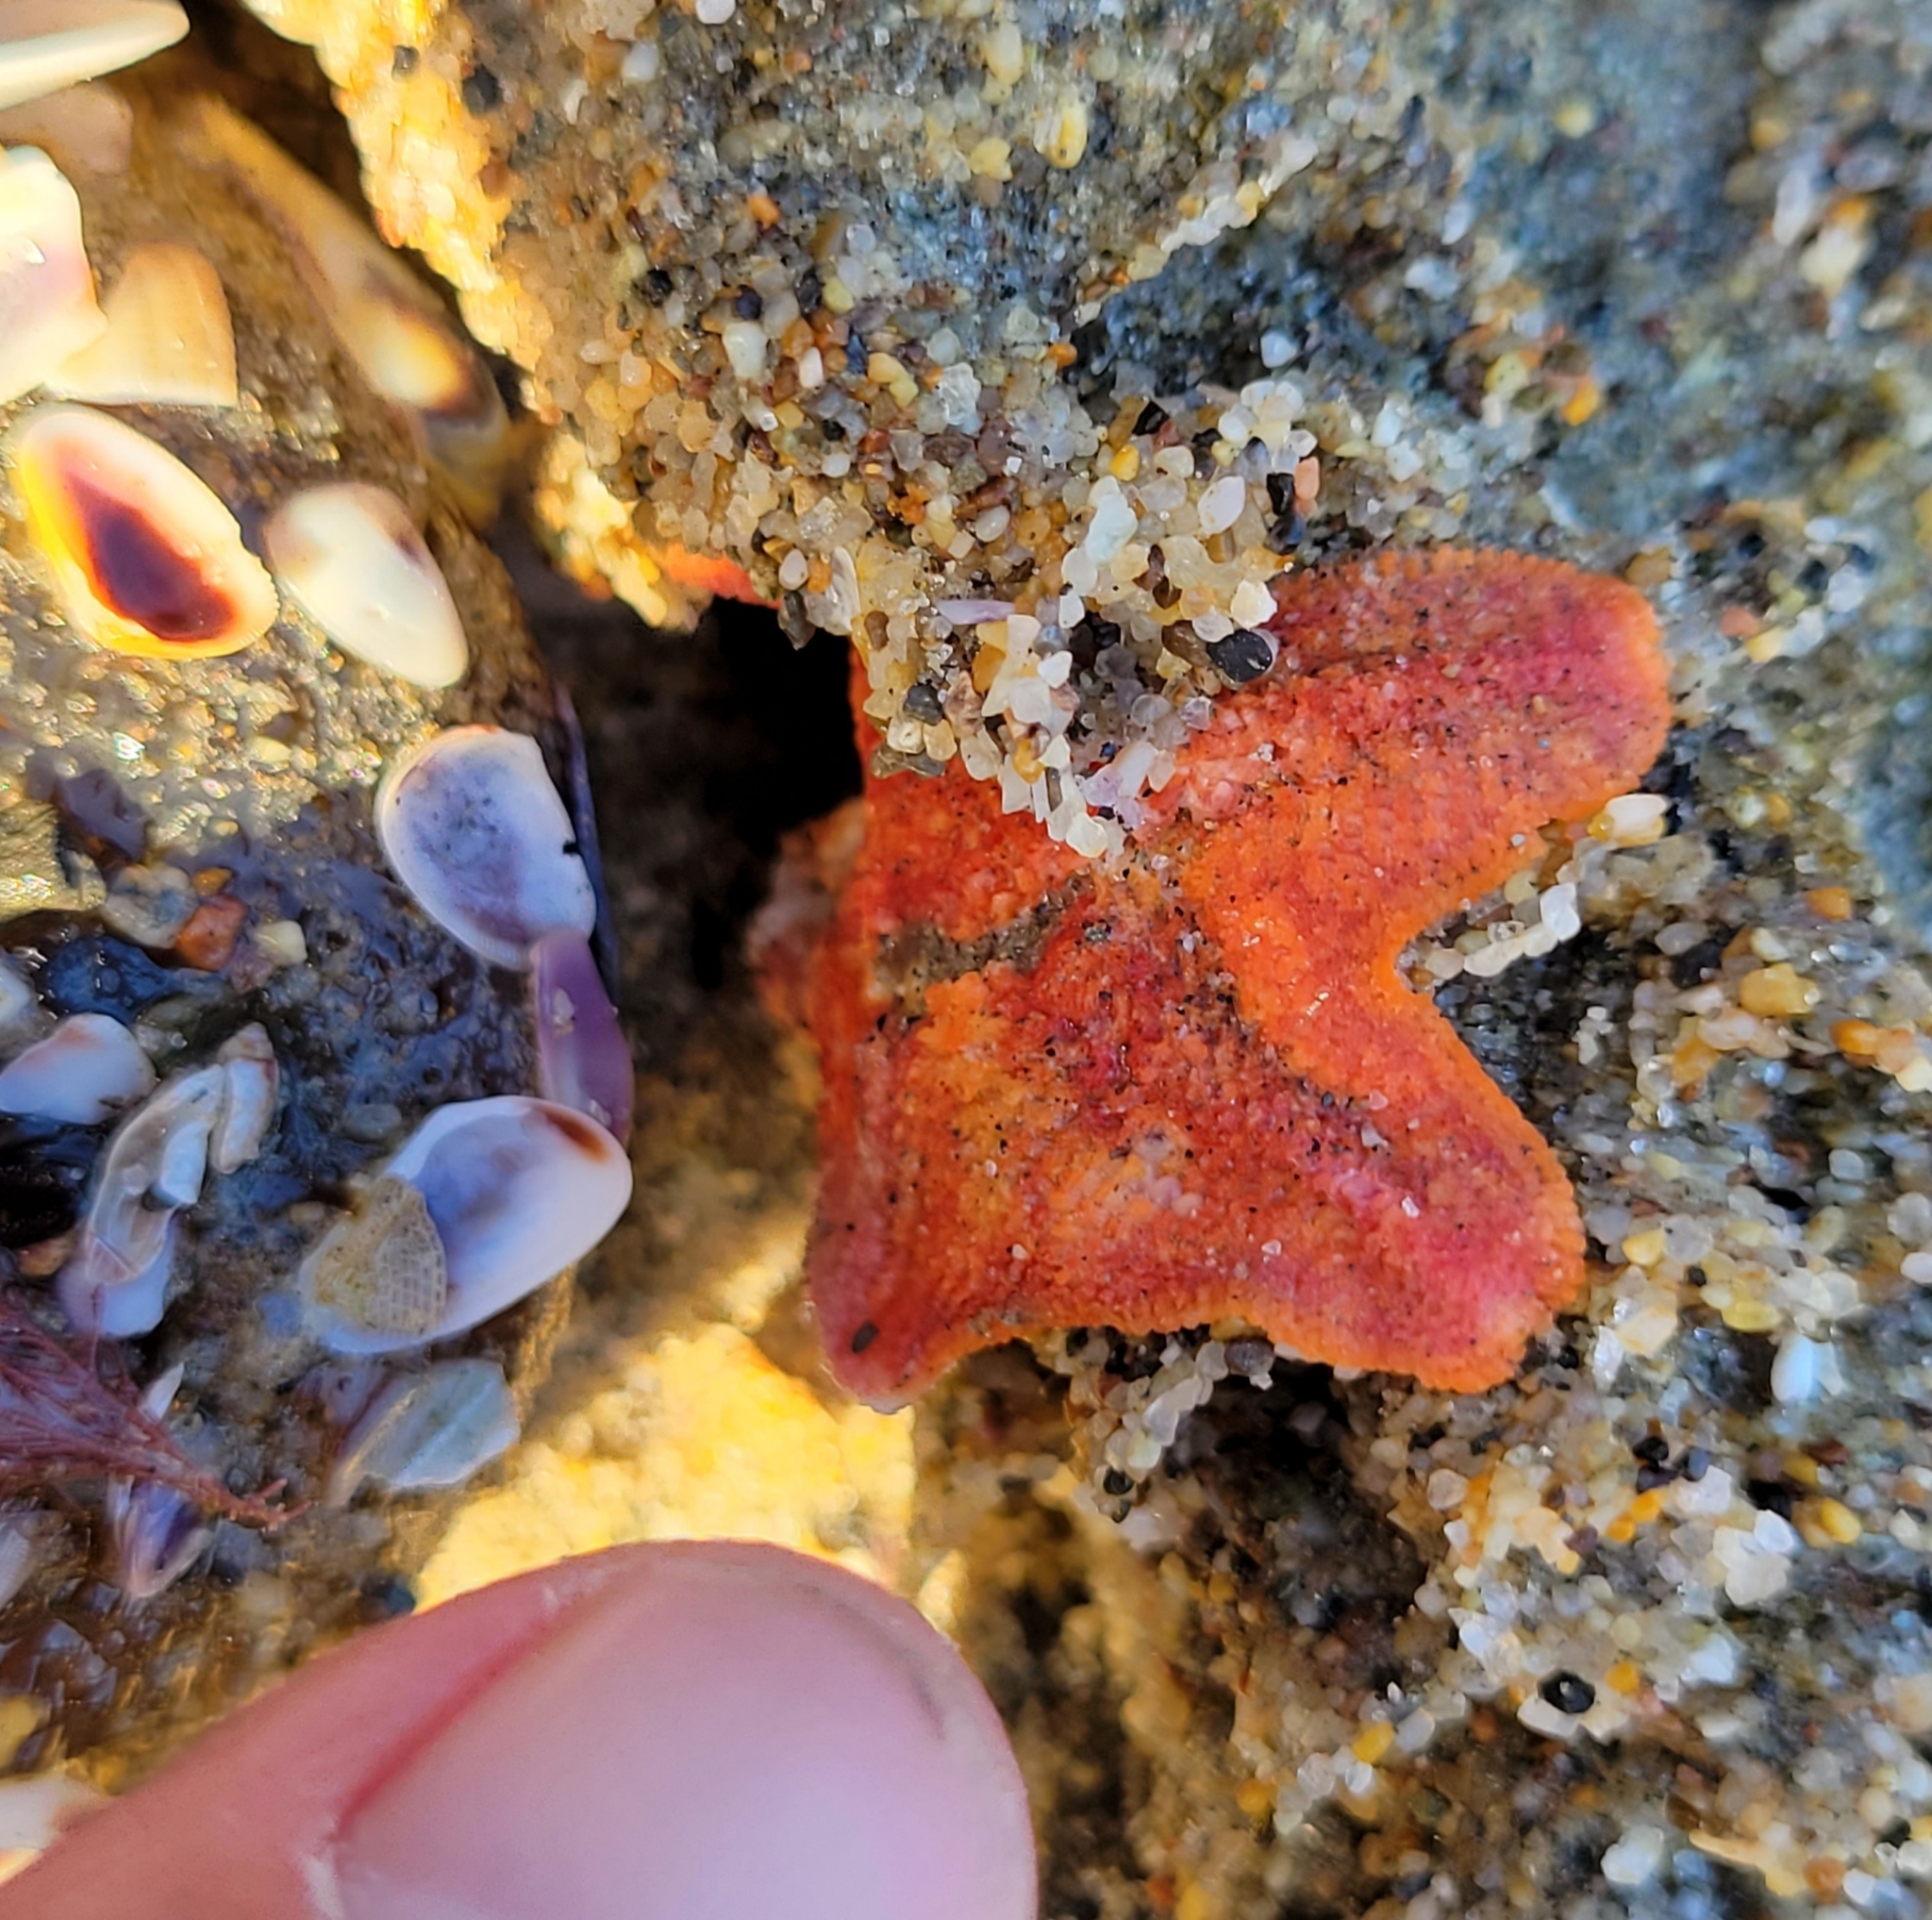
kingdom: Animalia
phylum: Echinodermata
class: Asteroidea
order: Valvatida
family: Asterinidae
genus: Patiria
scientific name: Patiria miniata
